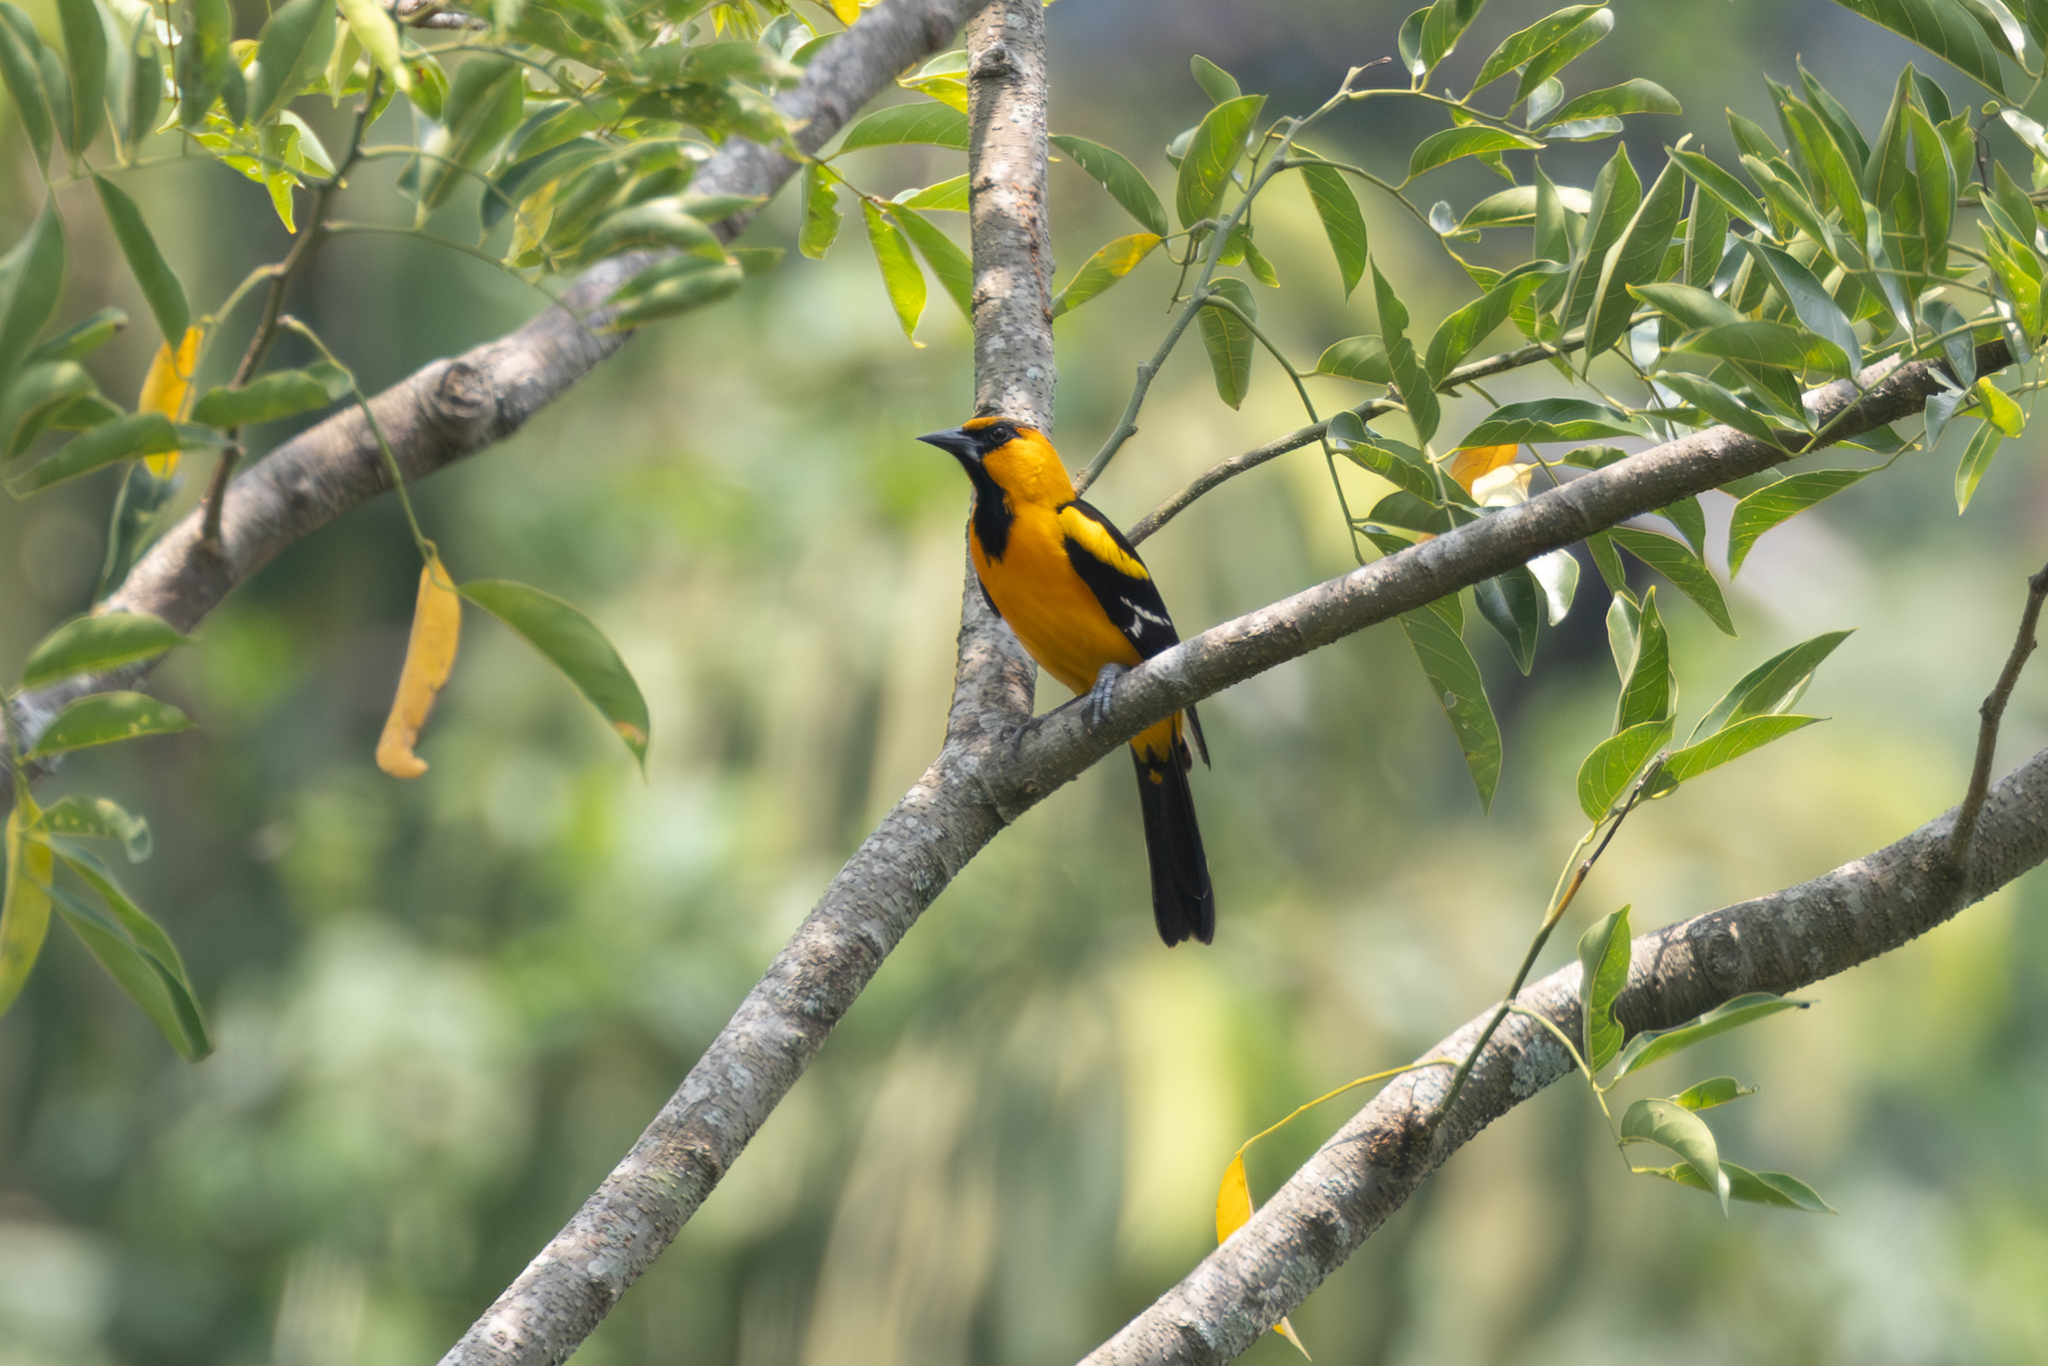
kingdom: Animalia
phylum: Chordata
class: Aves
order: Passeriformes
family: Icteridae
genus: Icterus
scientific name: Icterus gularis
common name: Altamira oriole
